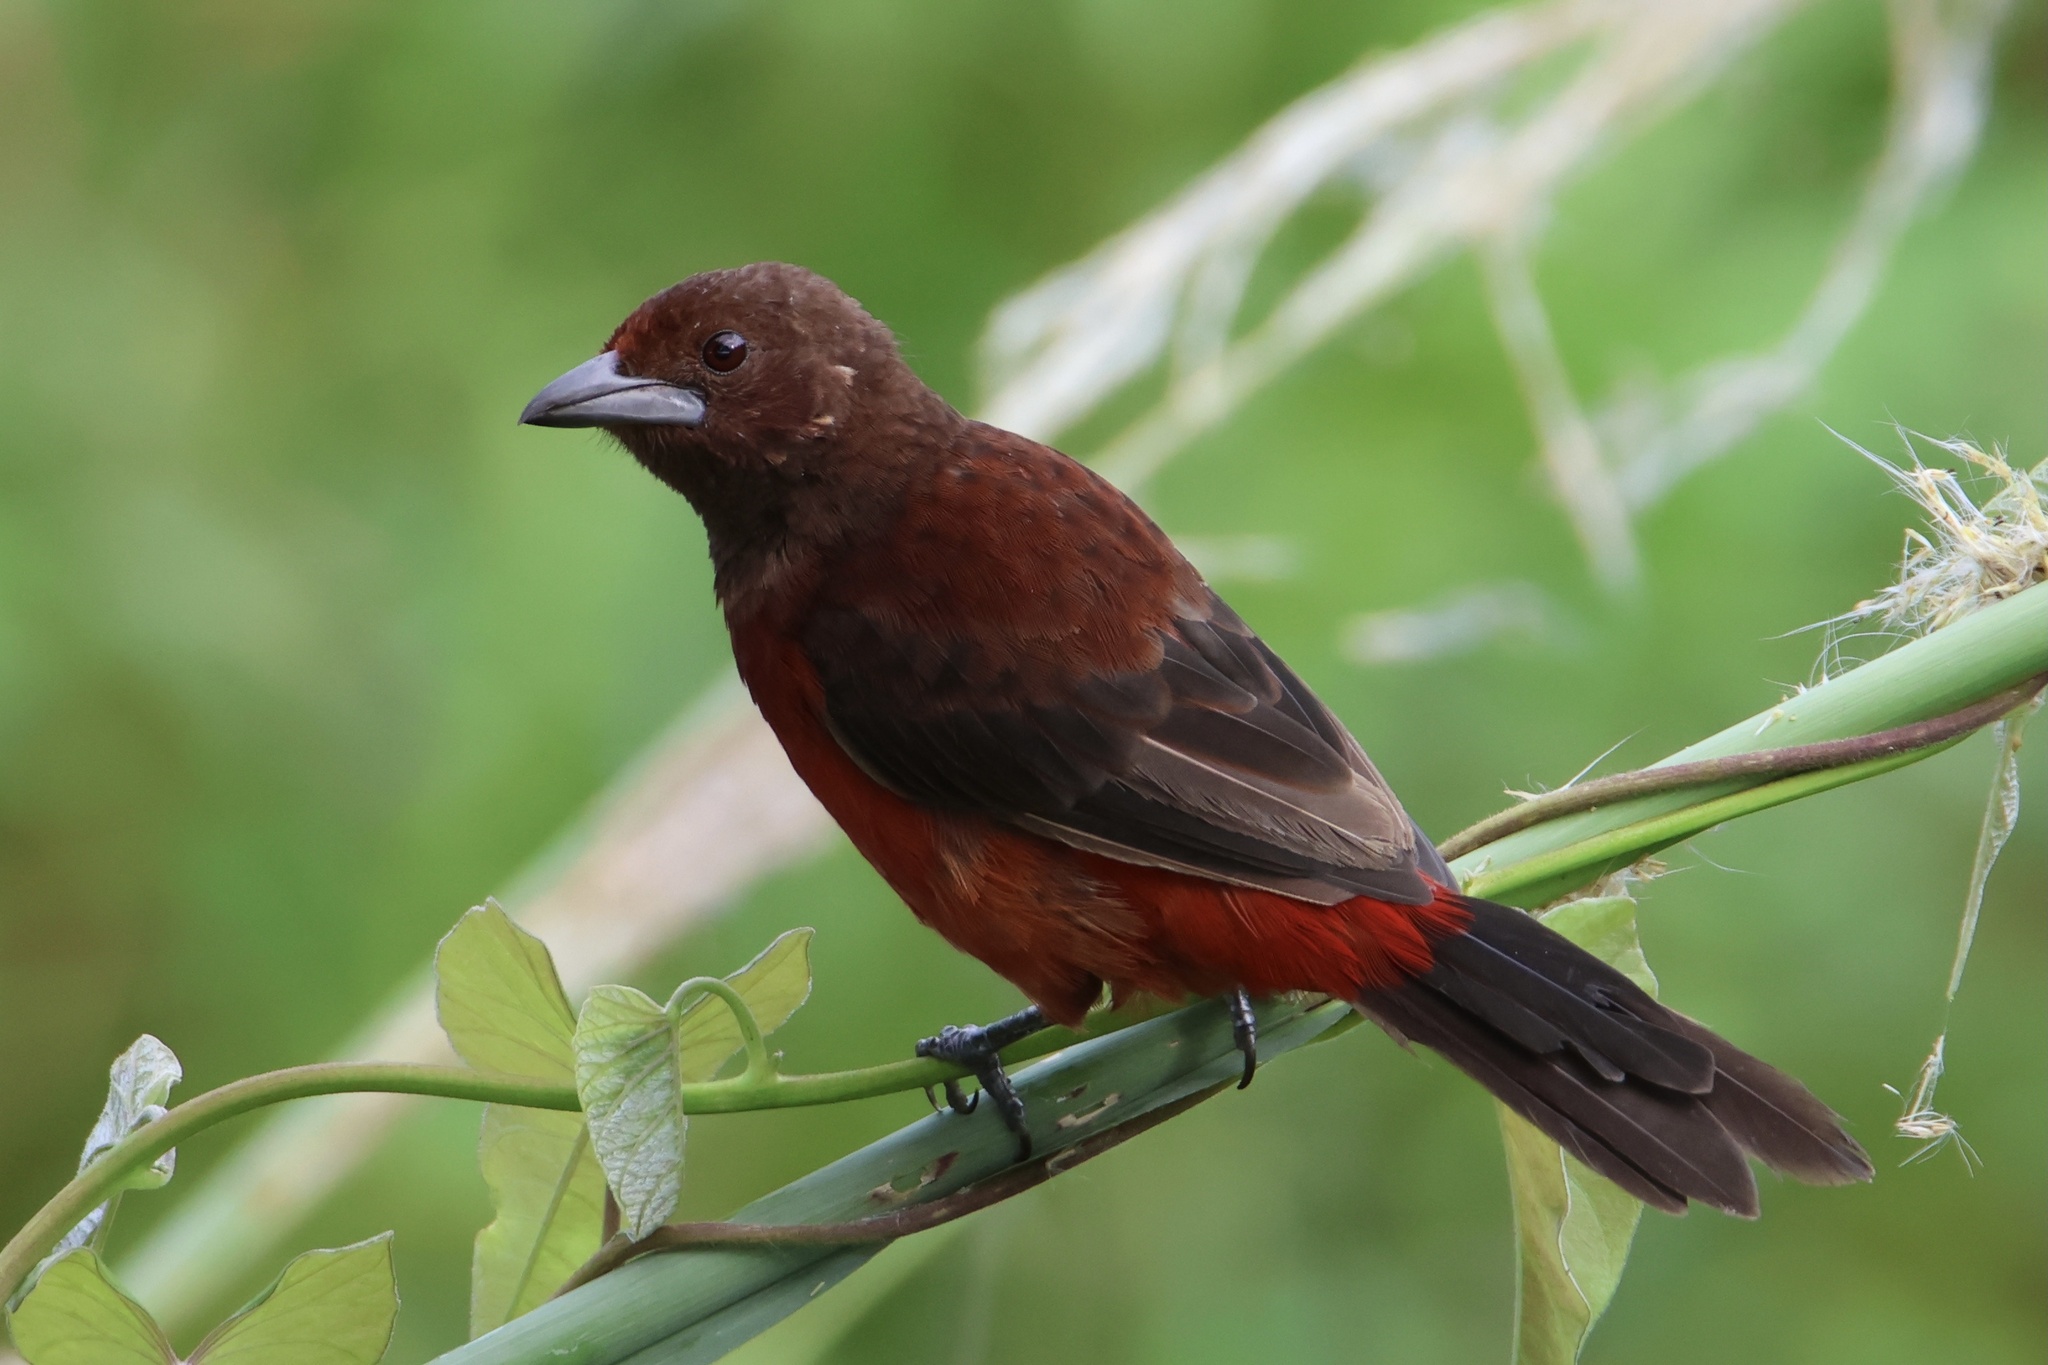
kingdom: Animalia
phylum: Chordata
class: Aves
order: Passeriformes
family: Thraupidae
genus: Ramphocelus
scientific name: Ramphocelus dimidiatus
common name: Crimson-backed tanager
